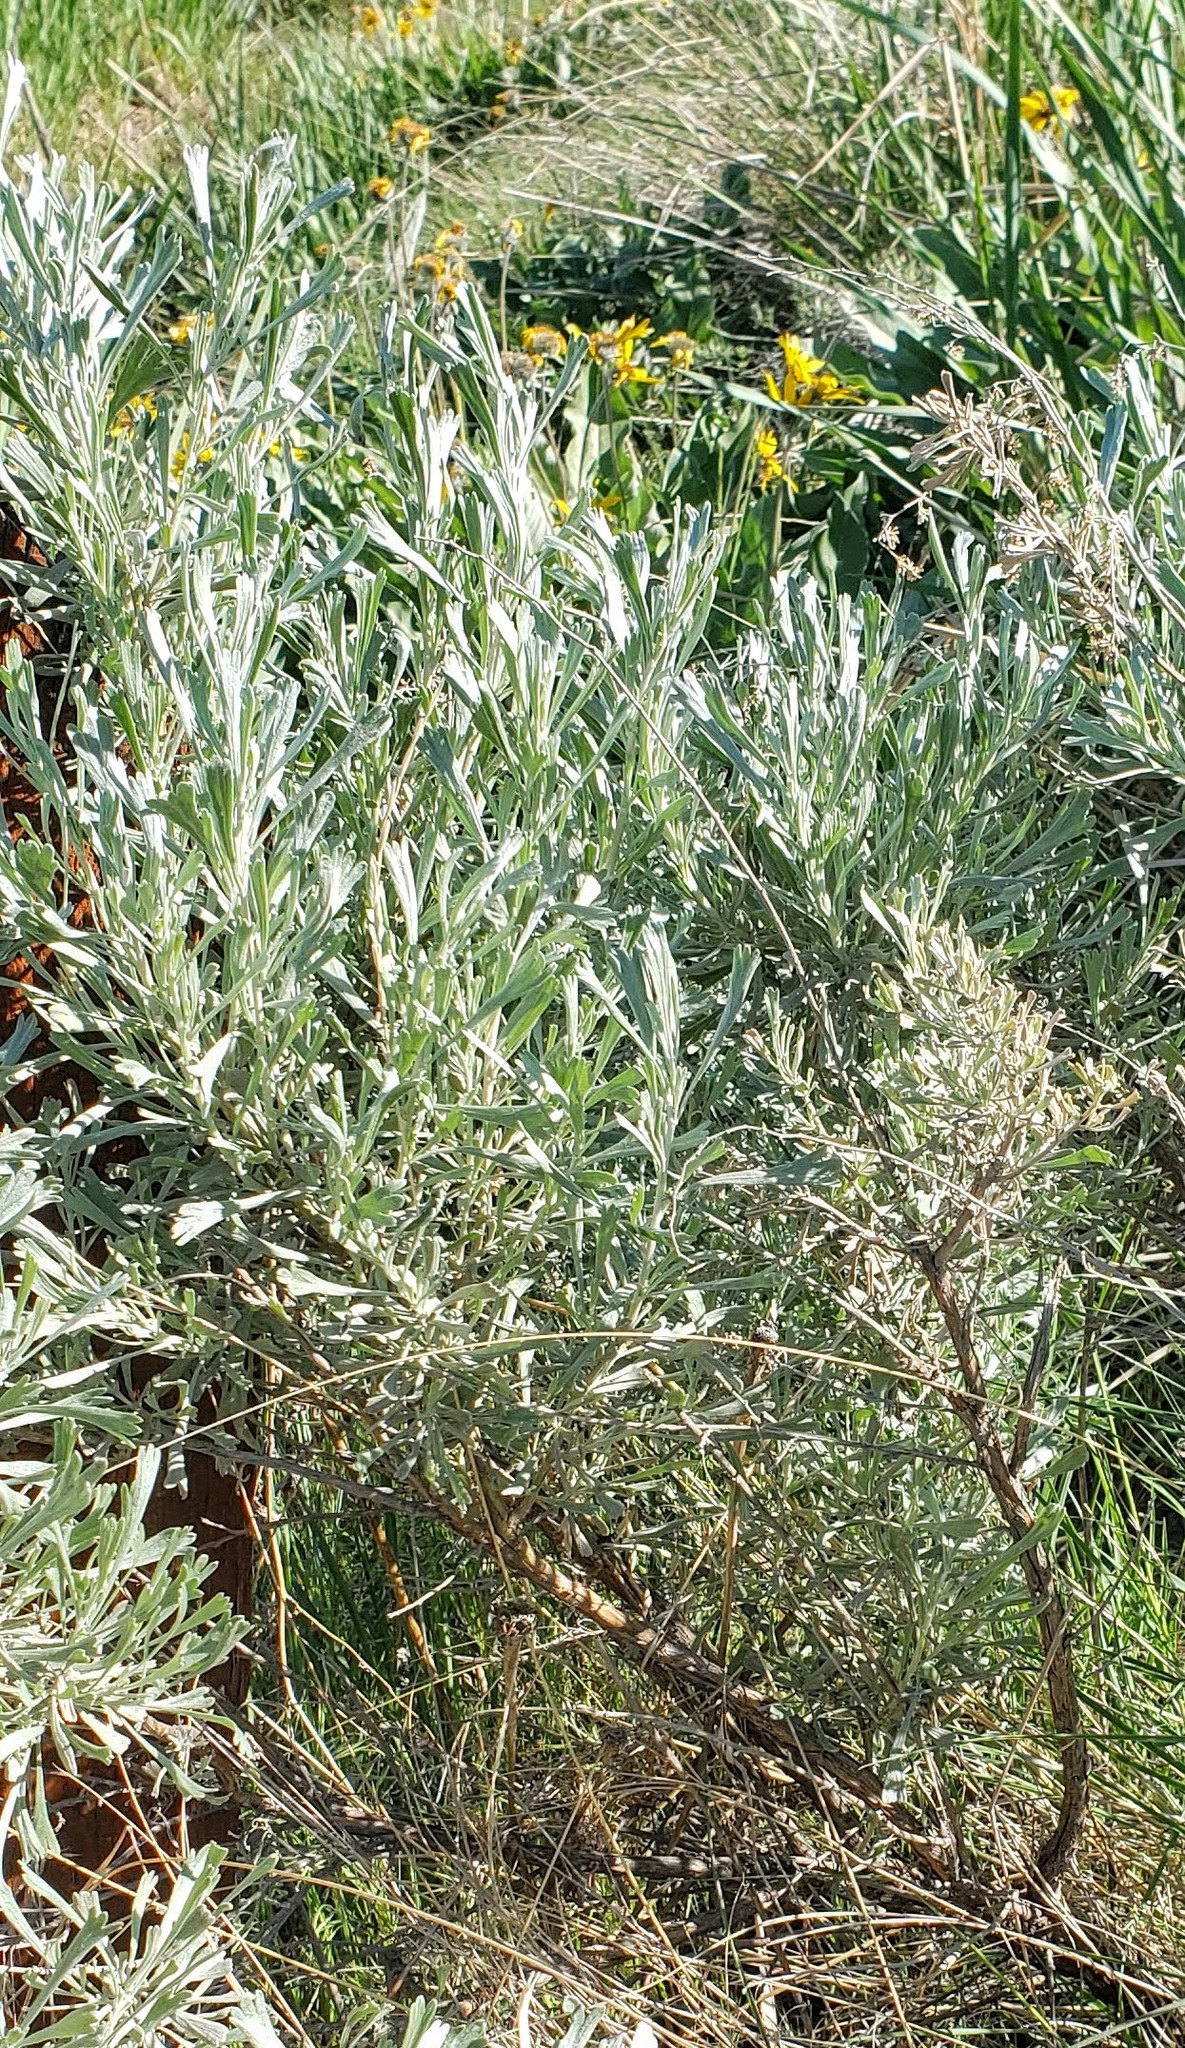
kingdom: Plantae
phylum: Tracheophyta
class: Magnoliopsida
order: Asterales
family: Asteraceae
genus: Artemisia
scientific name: Artemisia tridentata
